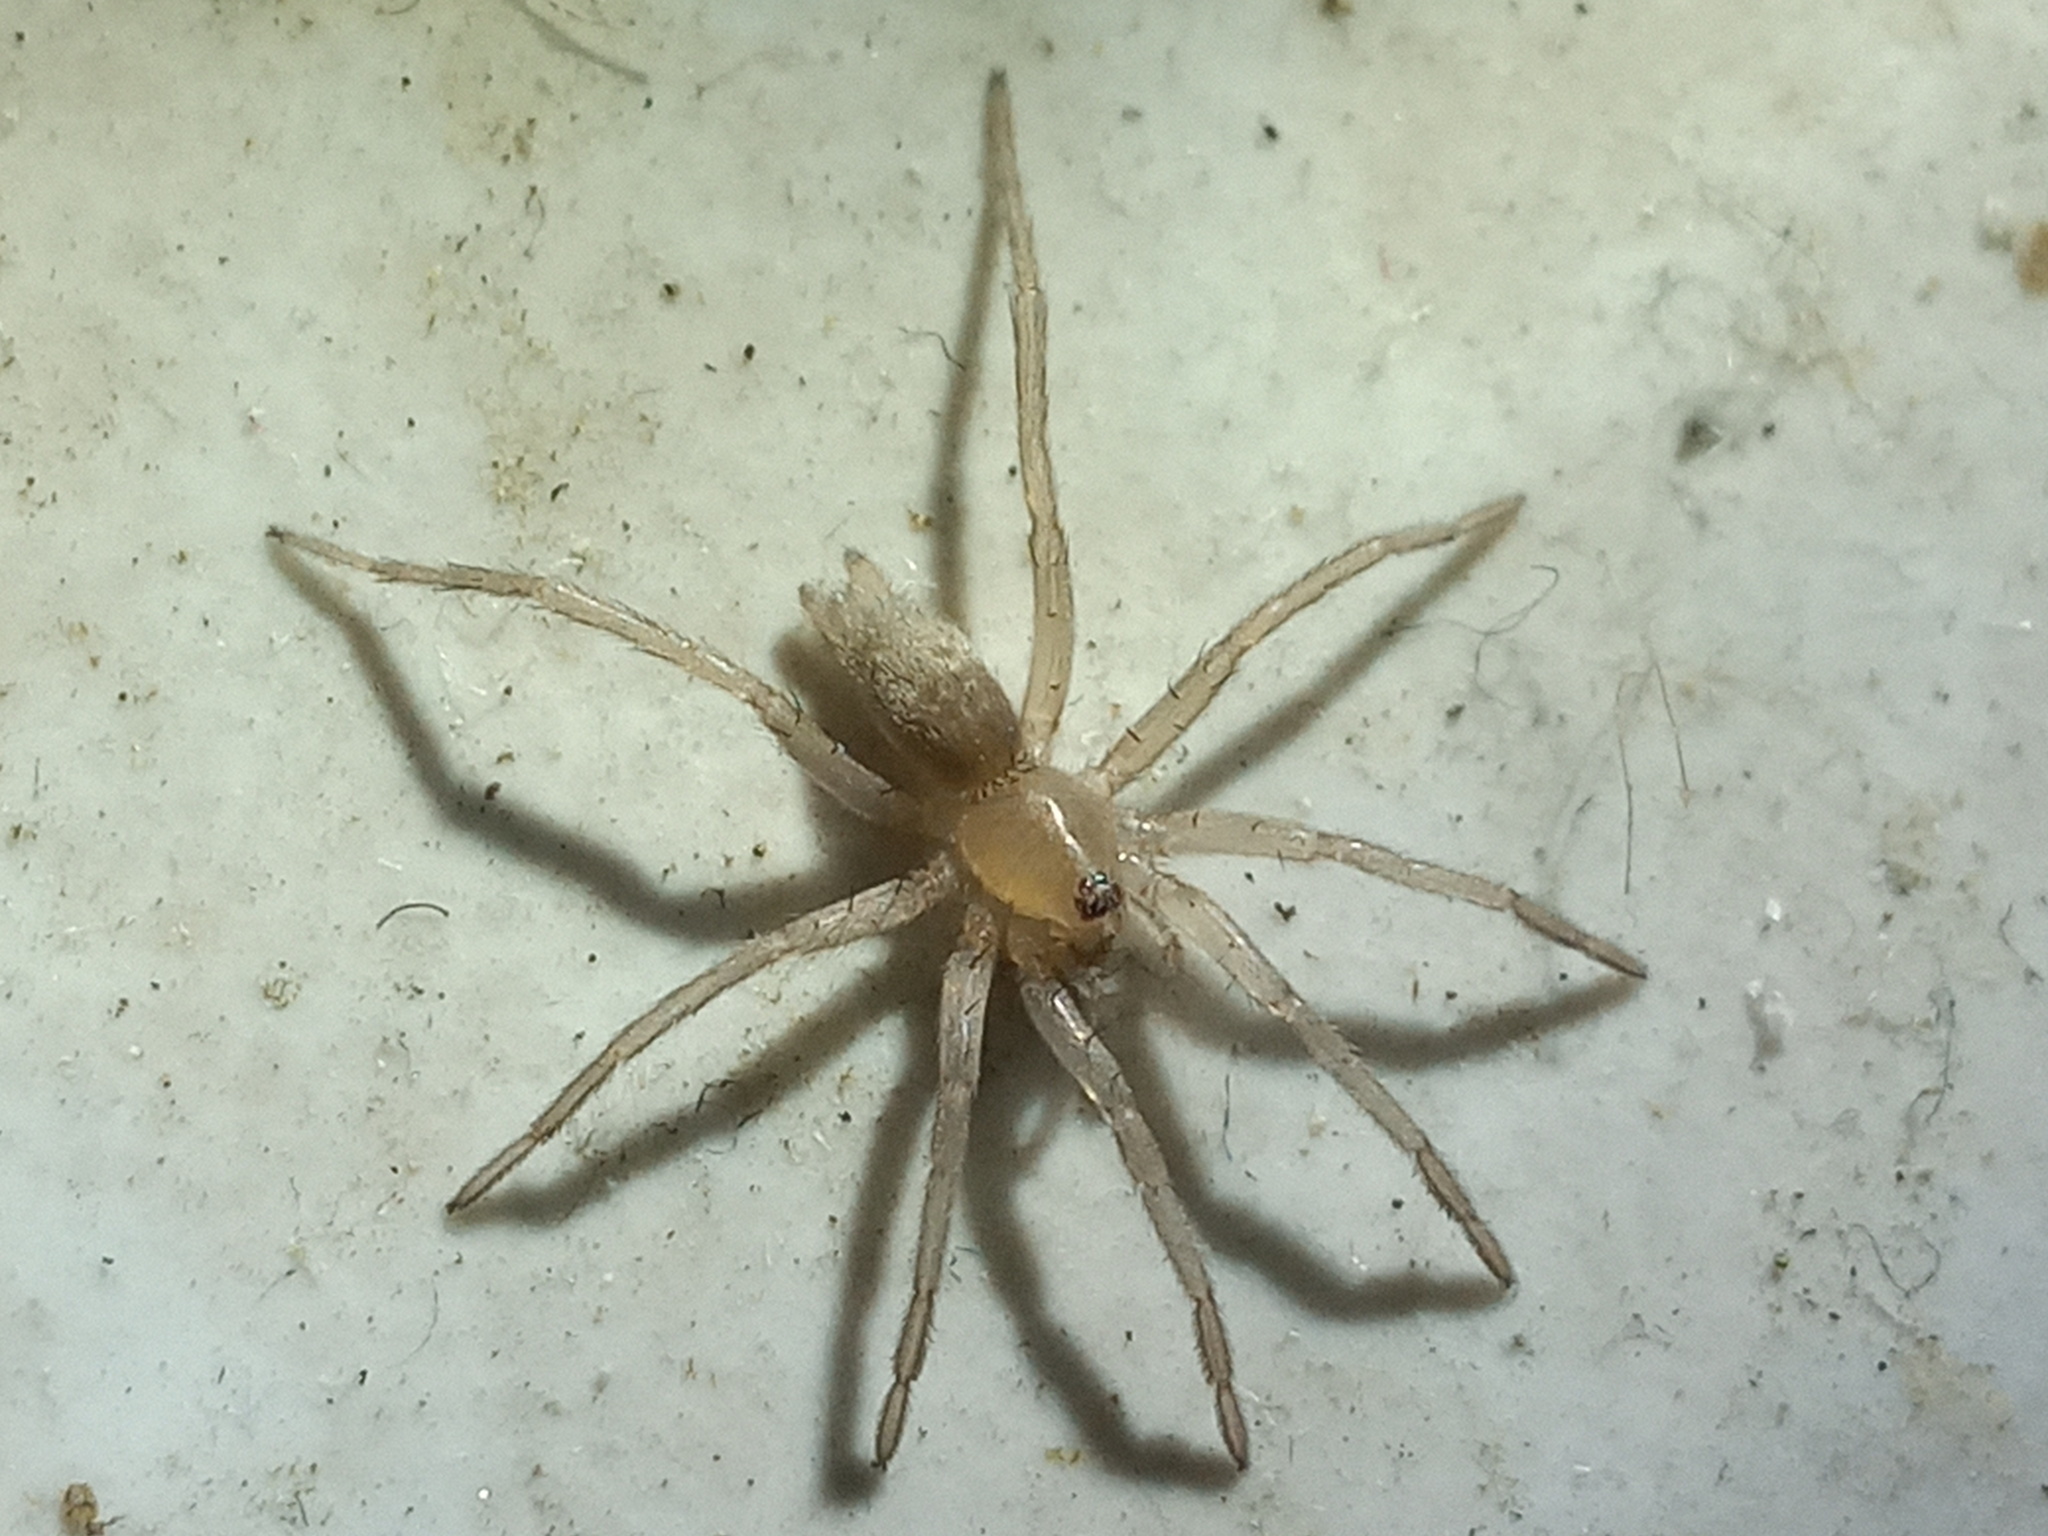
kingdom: Animalia
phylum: Arthropoda
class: Arachnida
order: Araneae
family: Prodidomidae
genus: Zimiris
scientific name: Zimiris doriae
